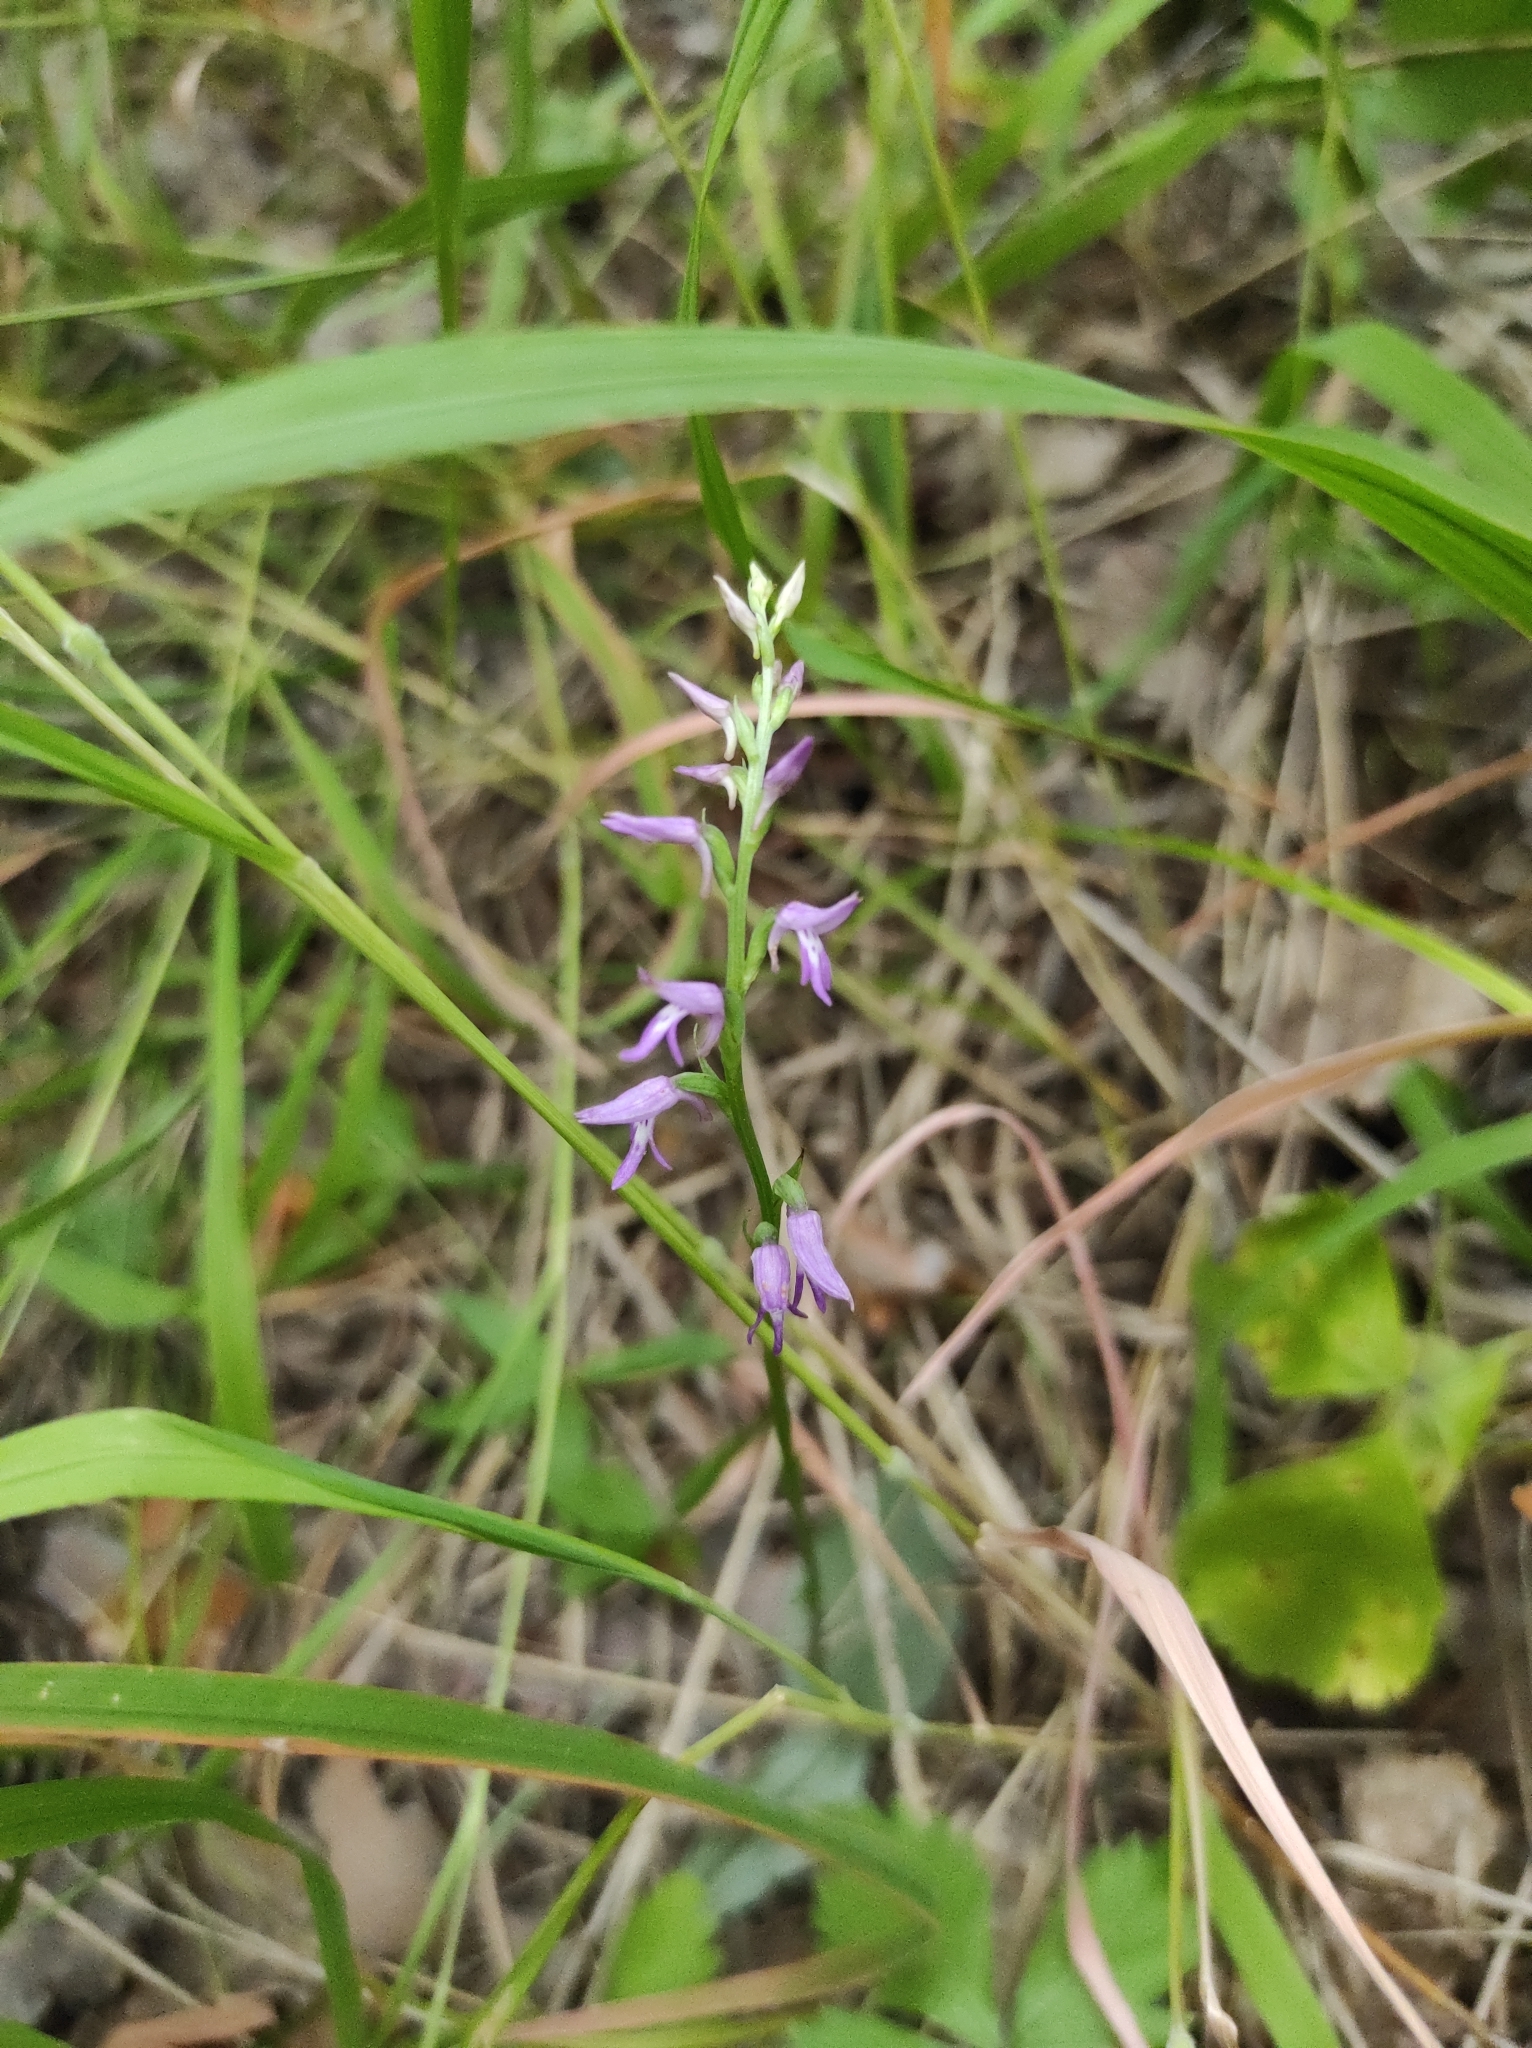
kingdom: Plantae
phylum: Tracheophyta
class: Liliopsida
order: Asparagales
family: Orchidaceae
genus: Hemipilia
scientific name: Hemipilia cucullata
